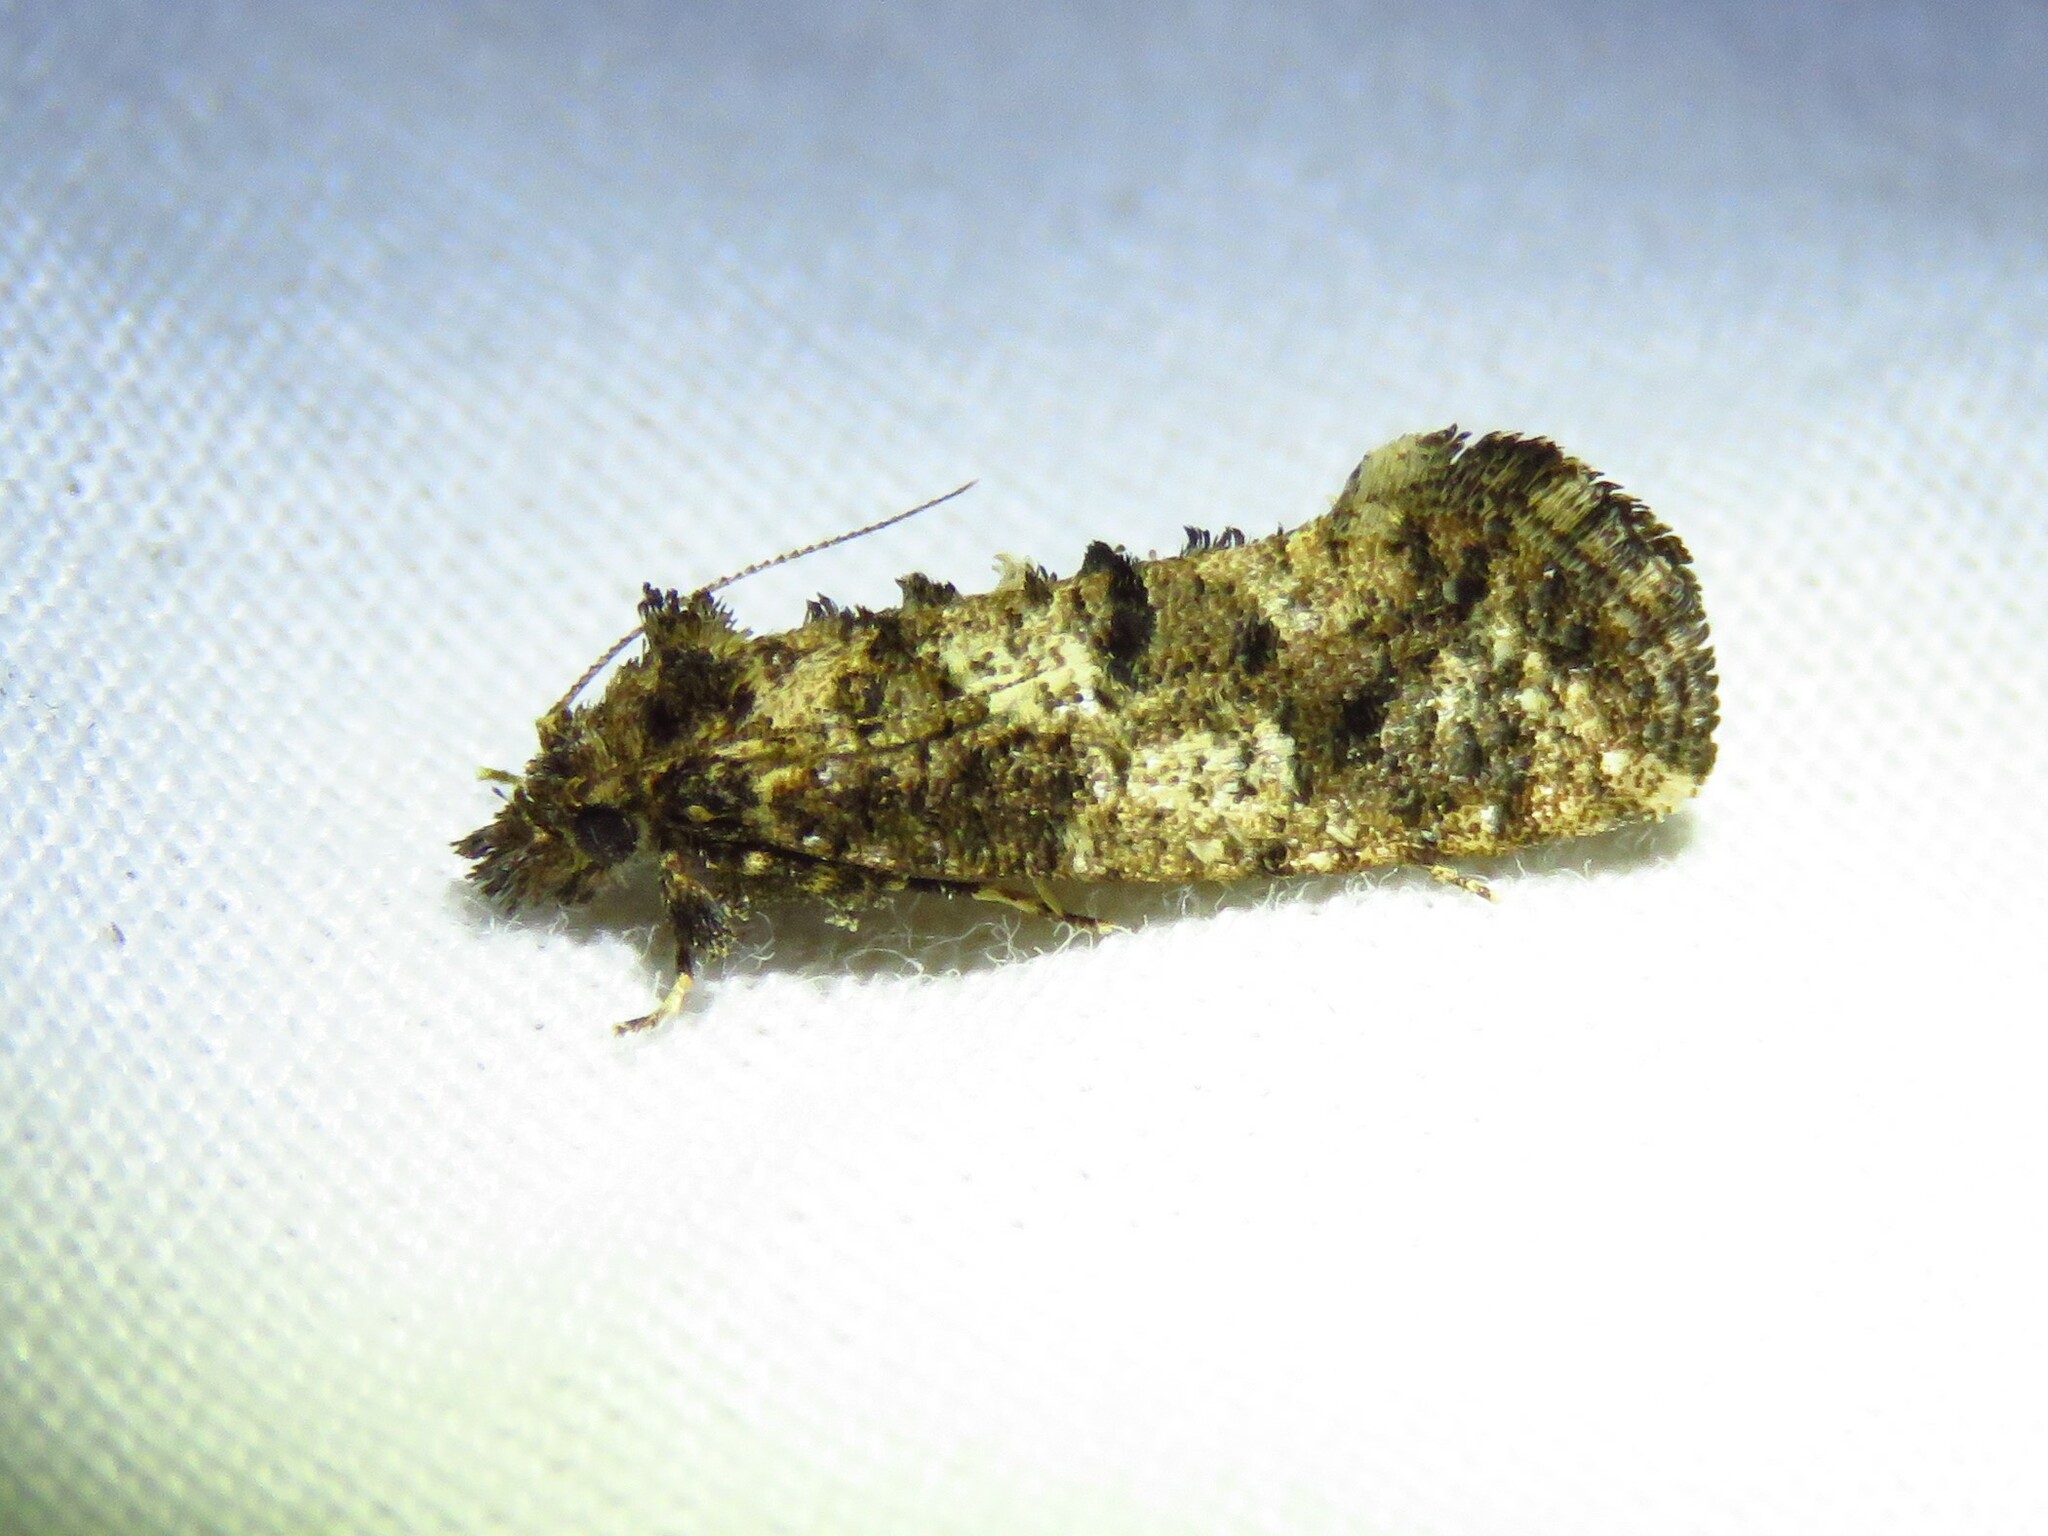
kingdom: Animalia
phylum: Arthropoda
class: Insecta
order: Lepidoptera
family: Tineidae
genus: Acrolophus
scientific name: Acrolophus cressoni
